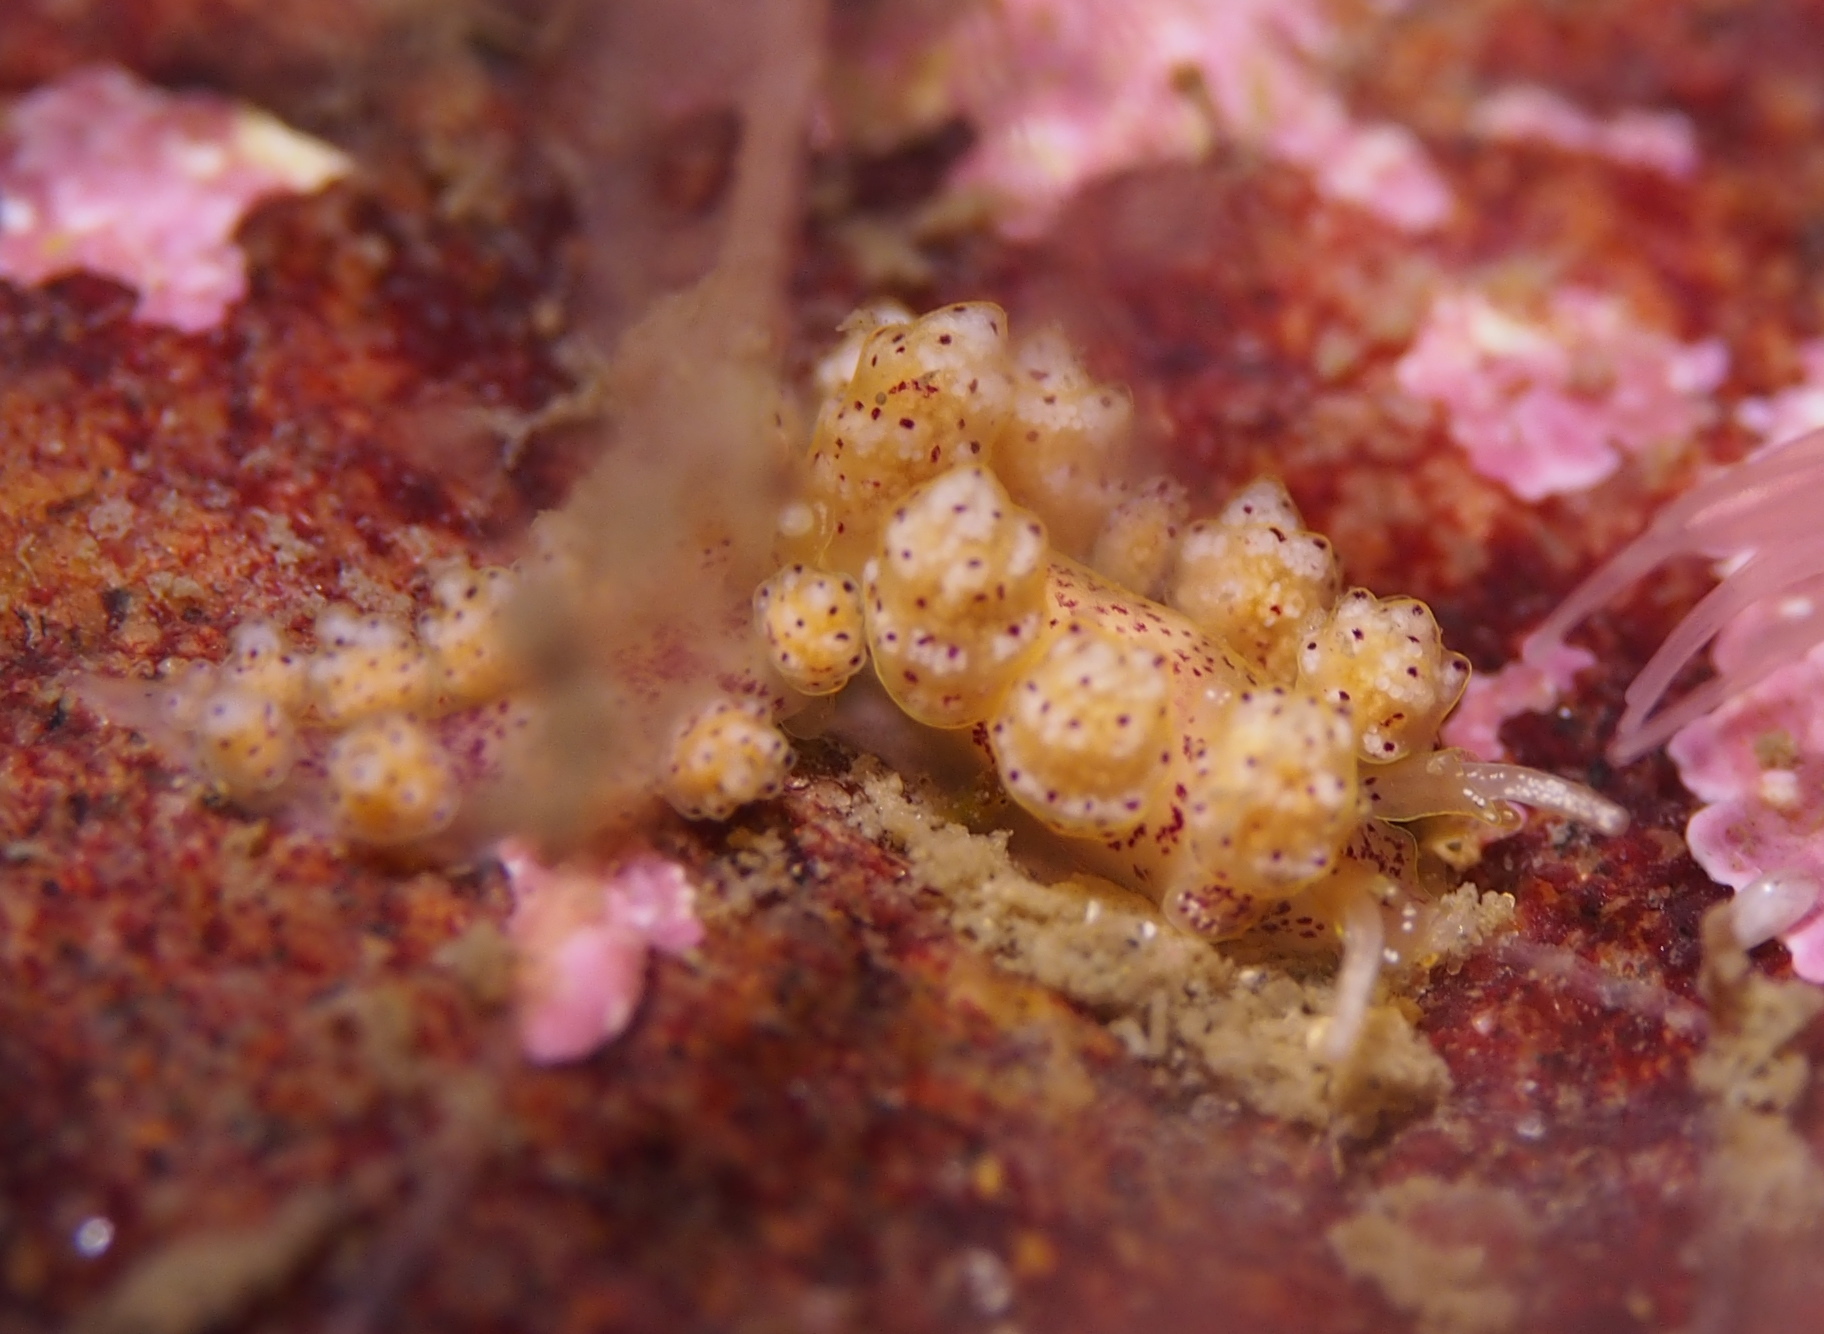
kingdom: Animalia
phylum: Mollusca
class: Gastropoda
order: Nudibranchia
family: Dotidae
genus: Doto
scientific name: Doto dunnei
